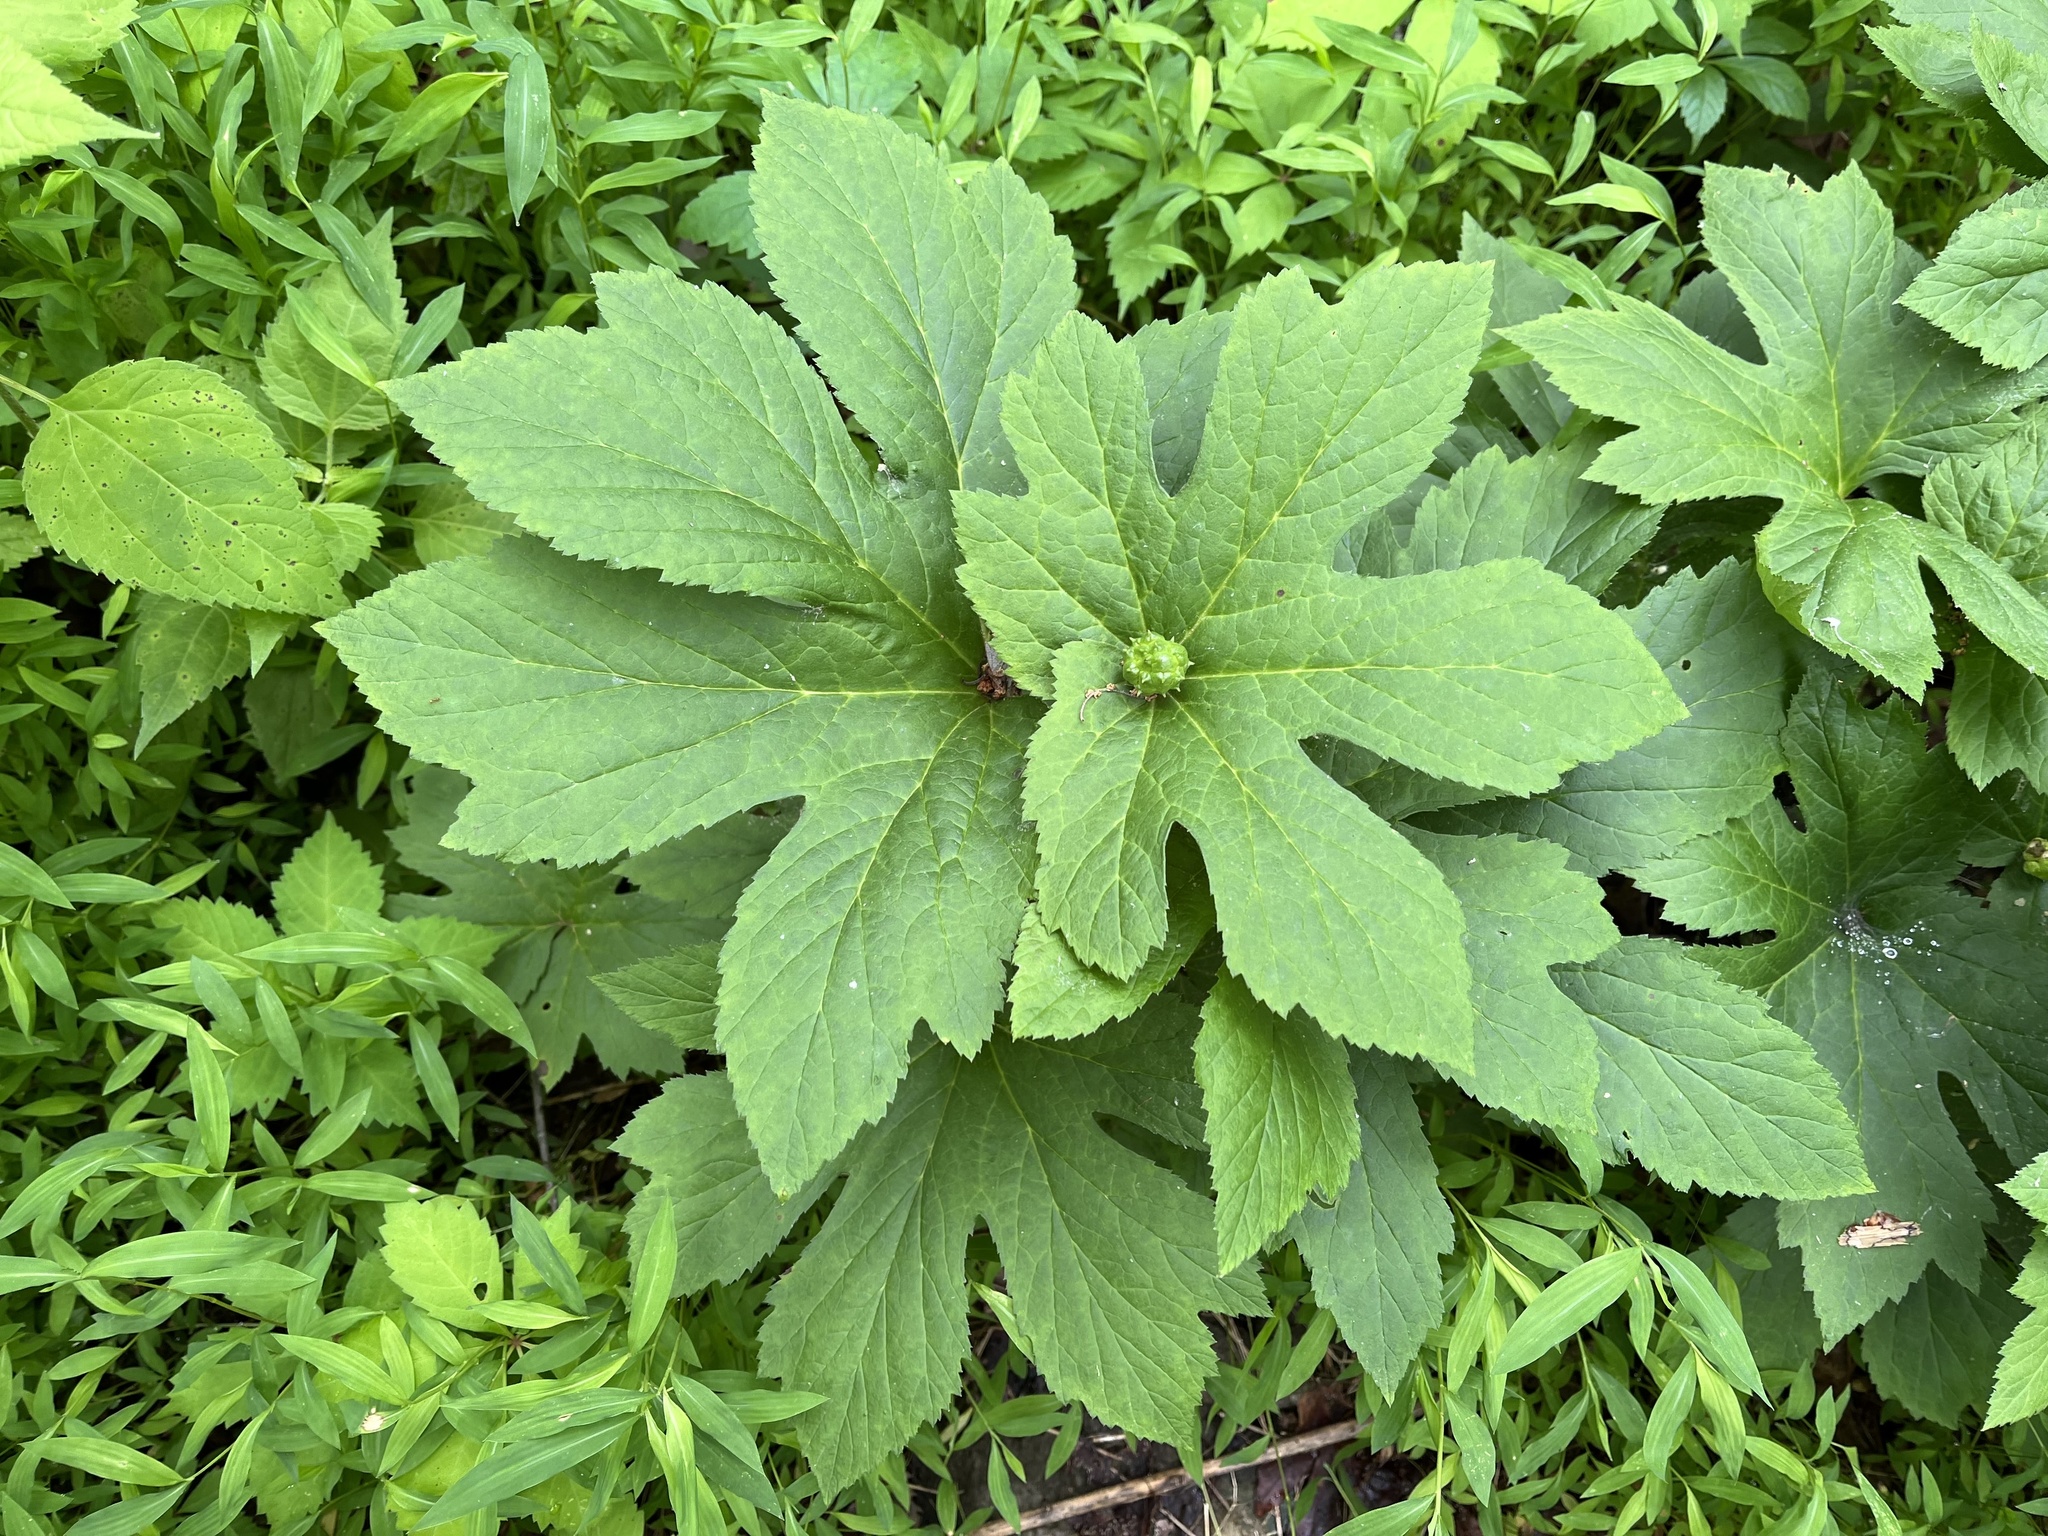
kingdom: Plantae
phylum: Tracheophyta
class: Magnoliopsida
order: Ranunculales
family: Ranunculaceae
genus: Hydrastis
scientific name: Hydrastis canadensis
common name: Goldenseal
